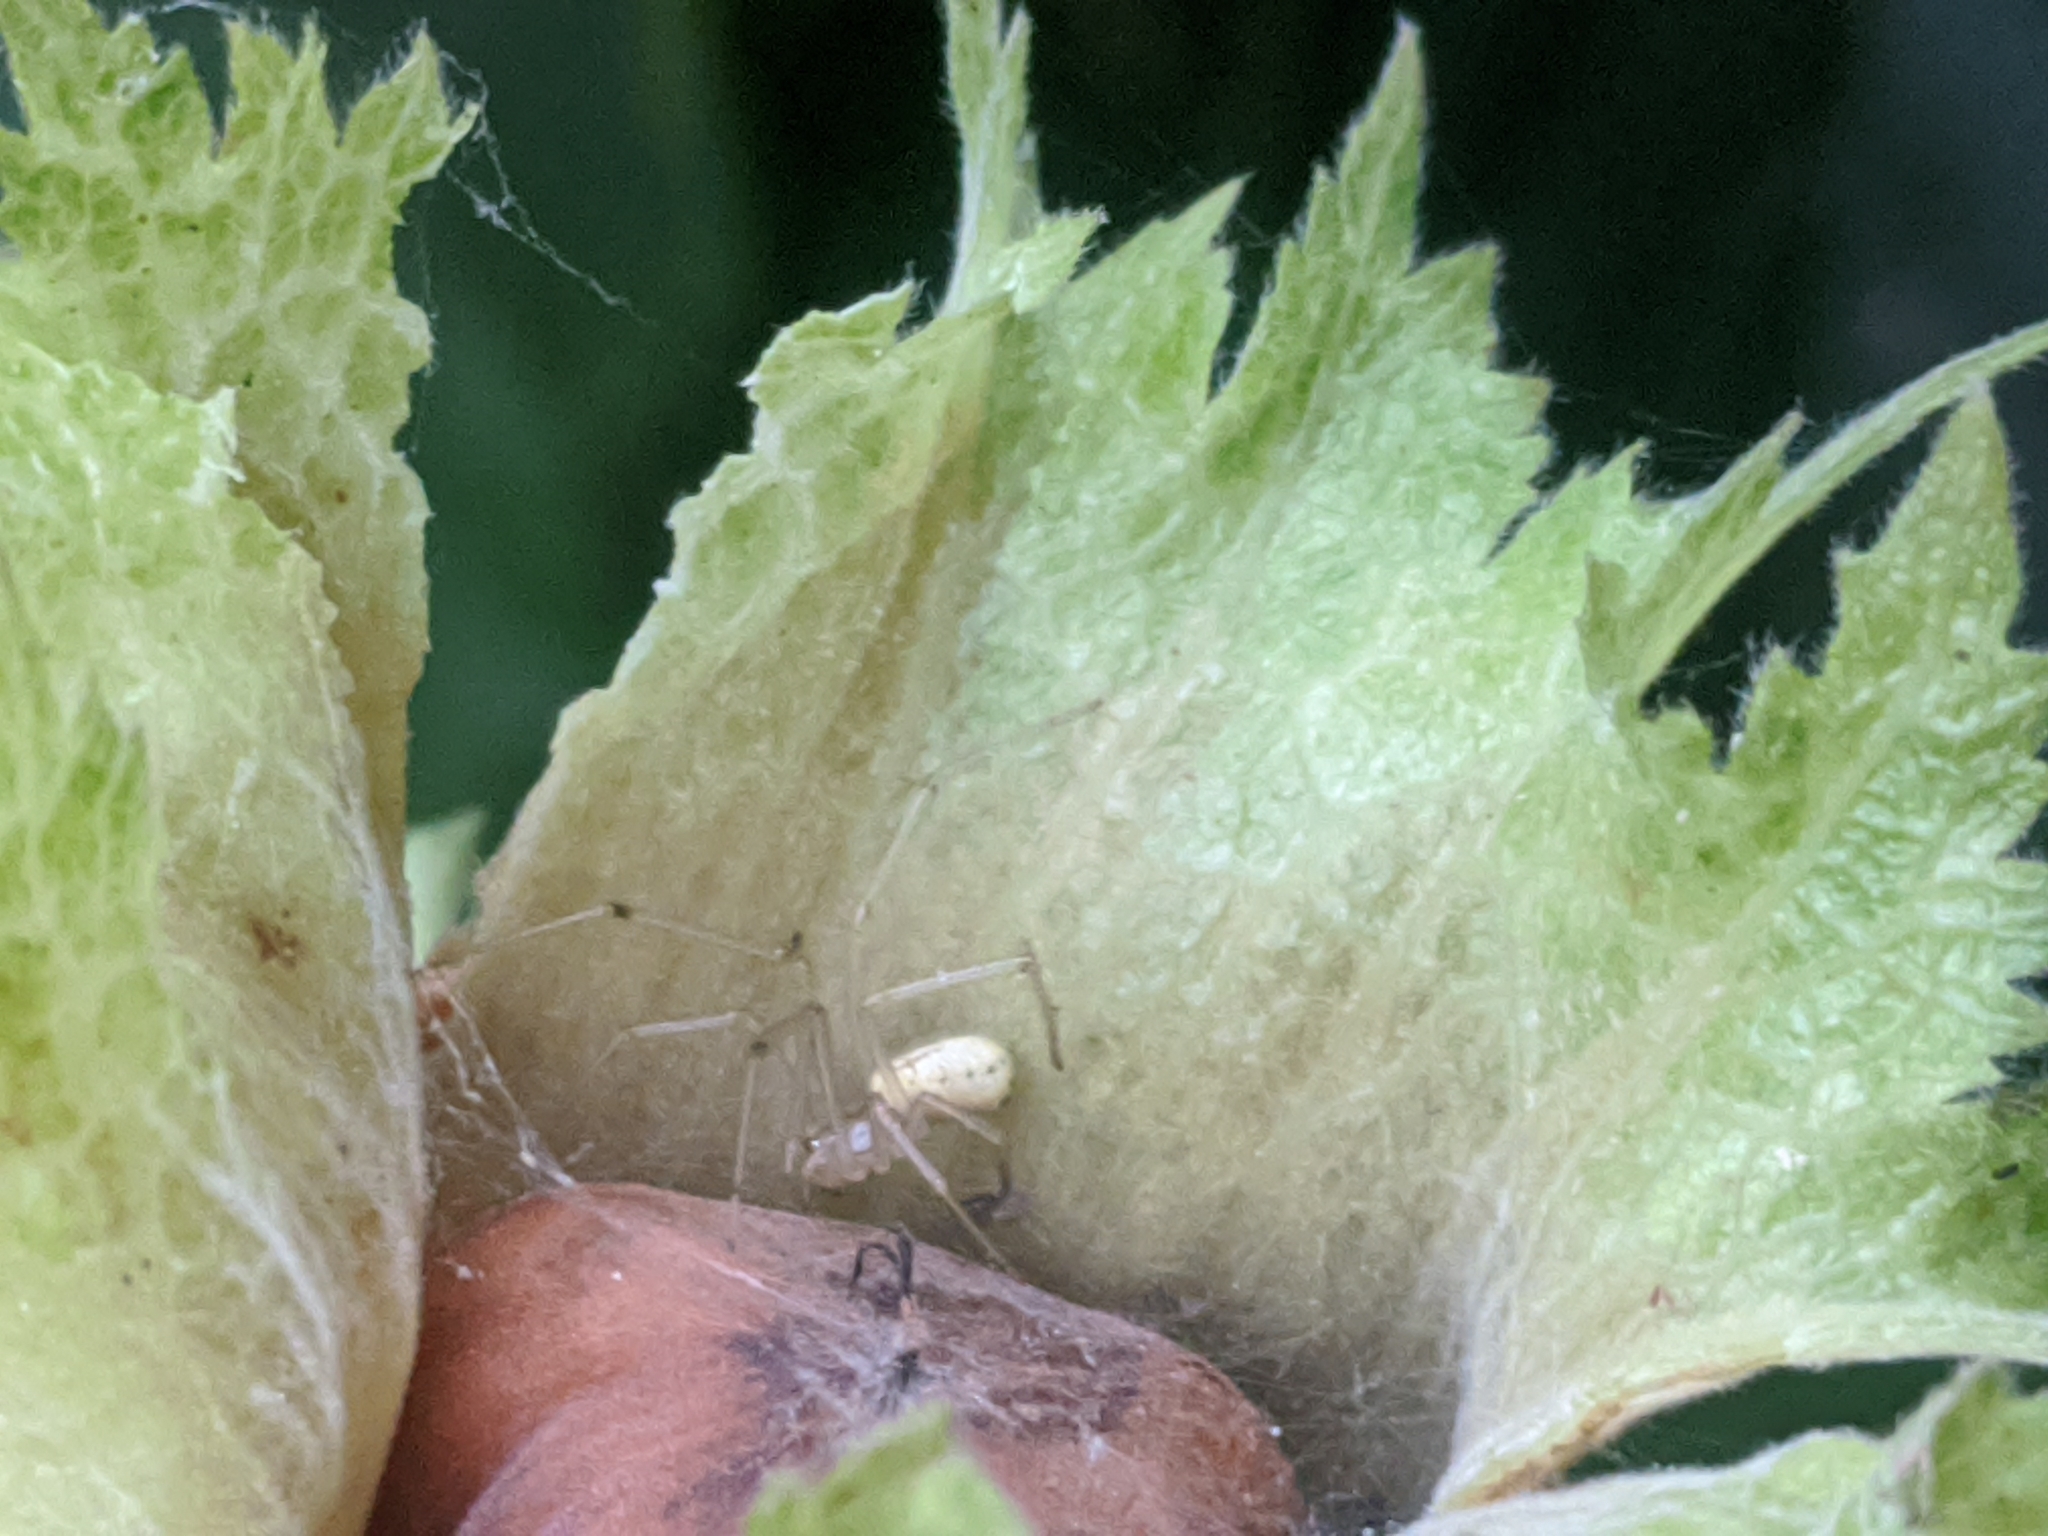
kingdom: Animalia
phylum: Arthropoda
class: Arachnida
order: Araneae
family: Theridiidae
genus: Enoplognatha
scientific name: Enoplognatha ovata
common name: Common candy-striped spider
